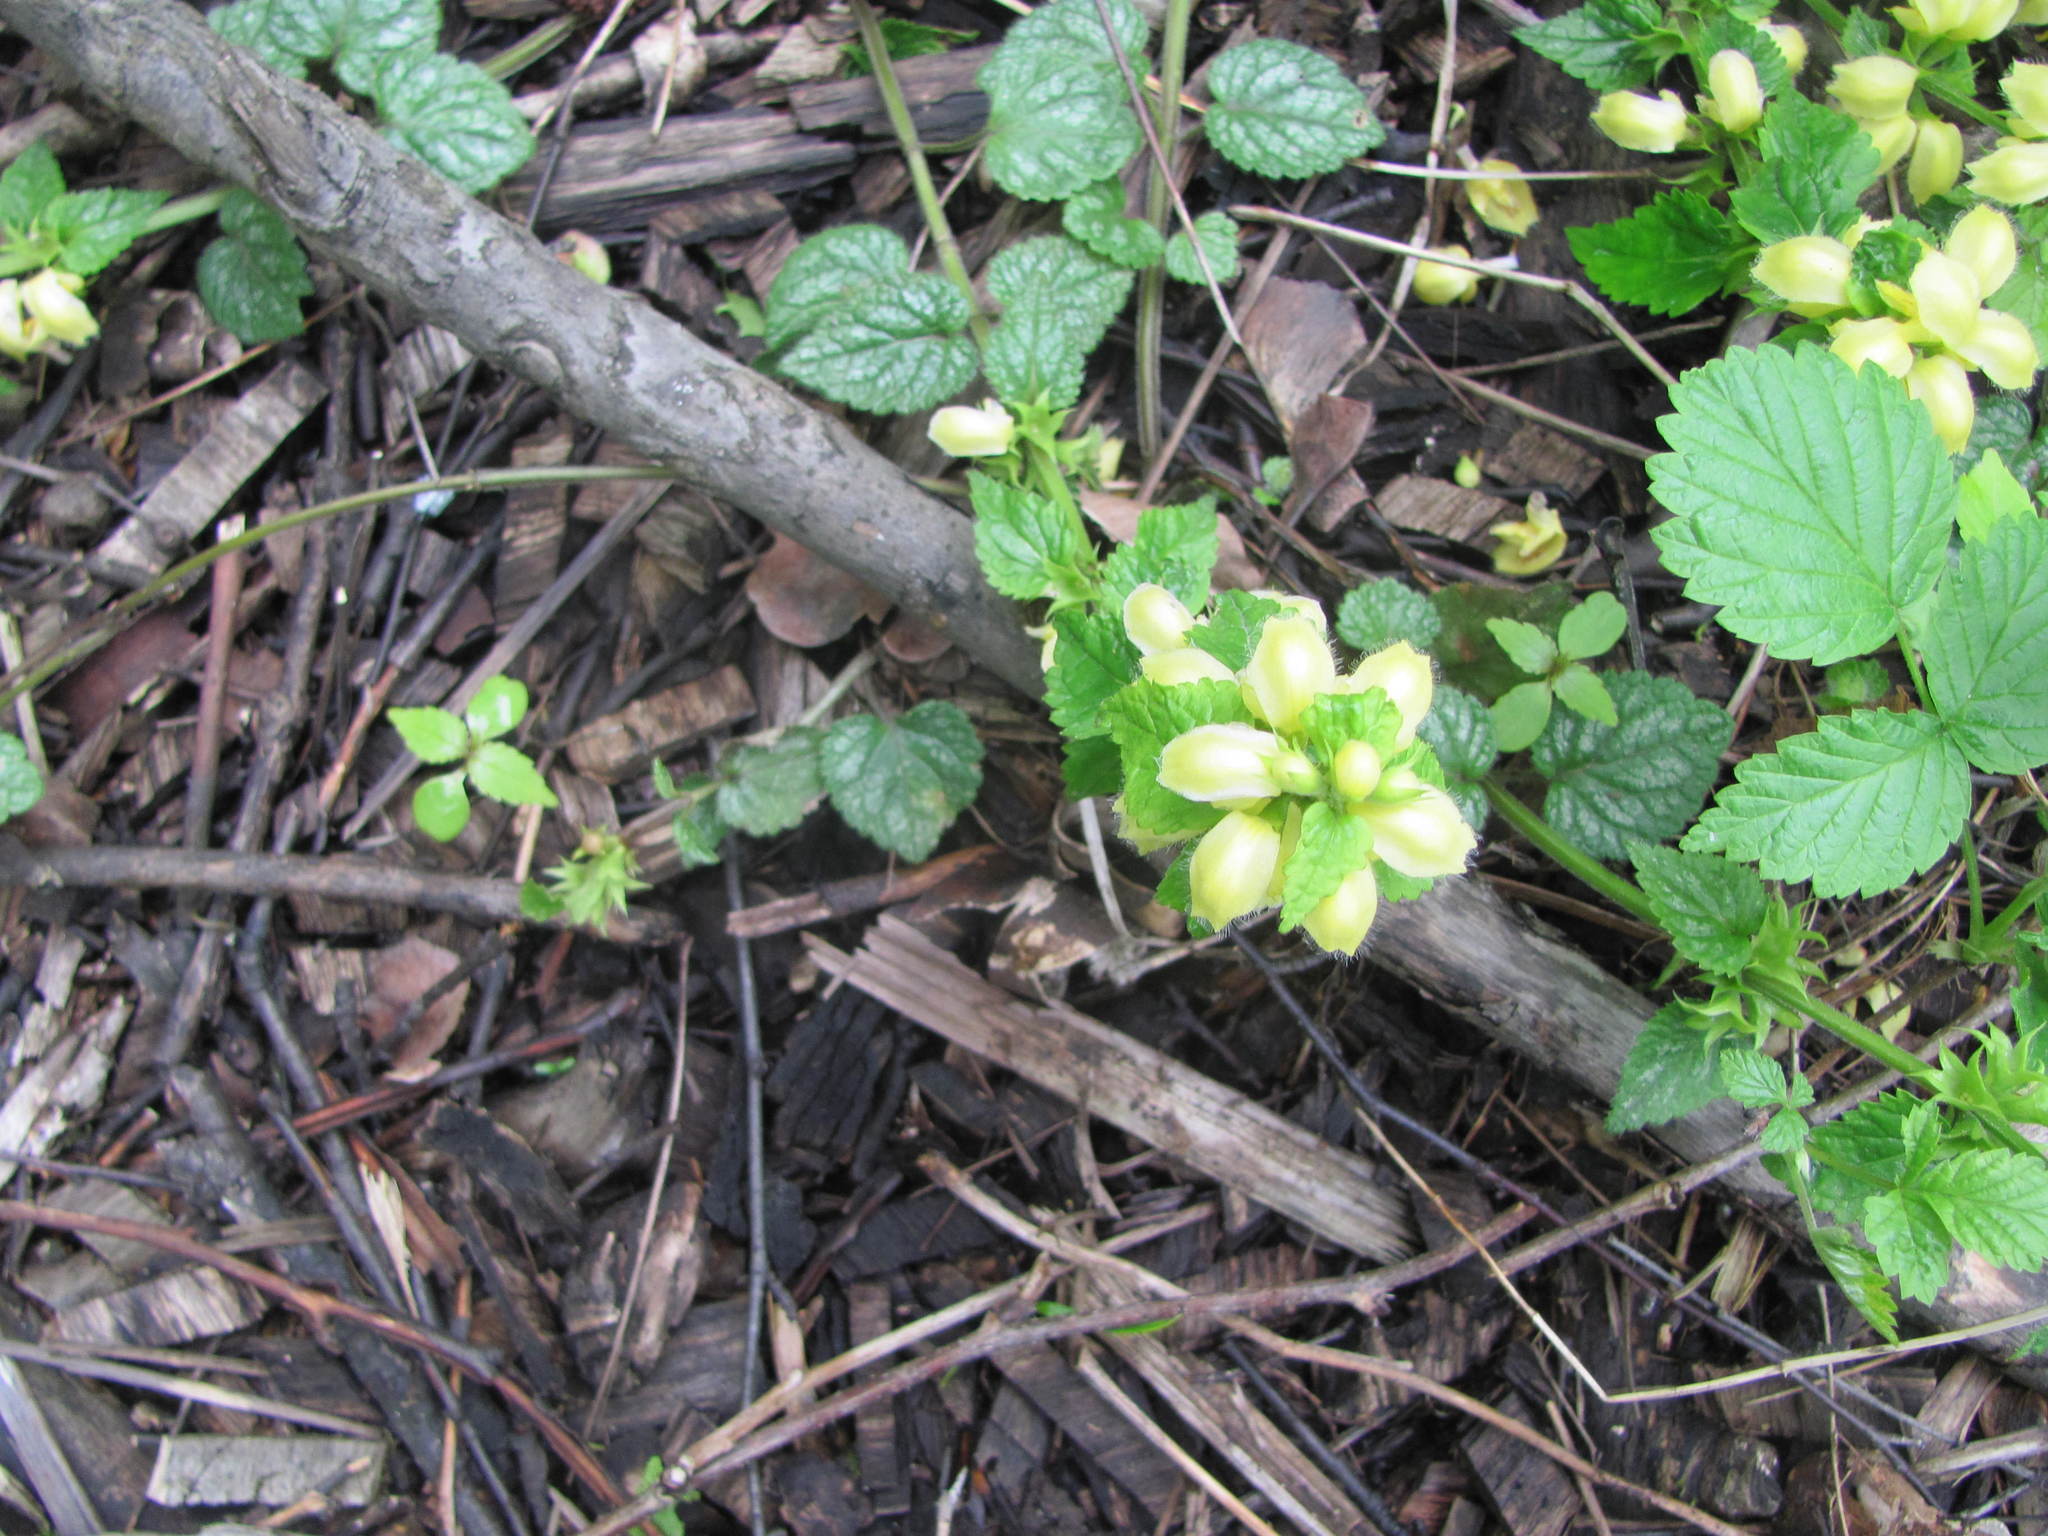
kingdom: Plantae
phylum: Tracheophyta
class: Magnoliopsida
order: Lamiales
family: Lamiaceae
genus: Lamium
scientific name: Lamium galeobdolon
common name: Yellow archangel
